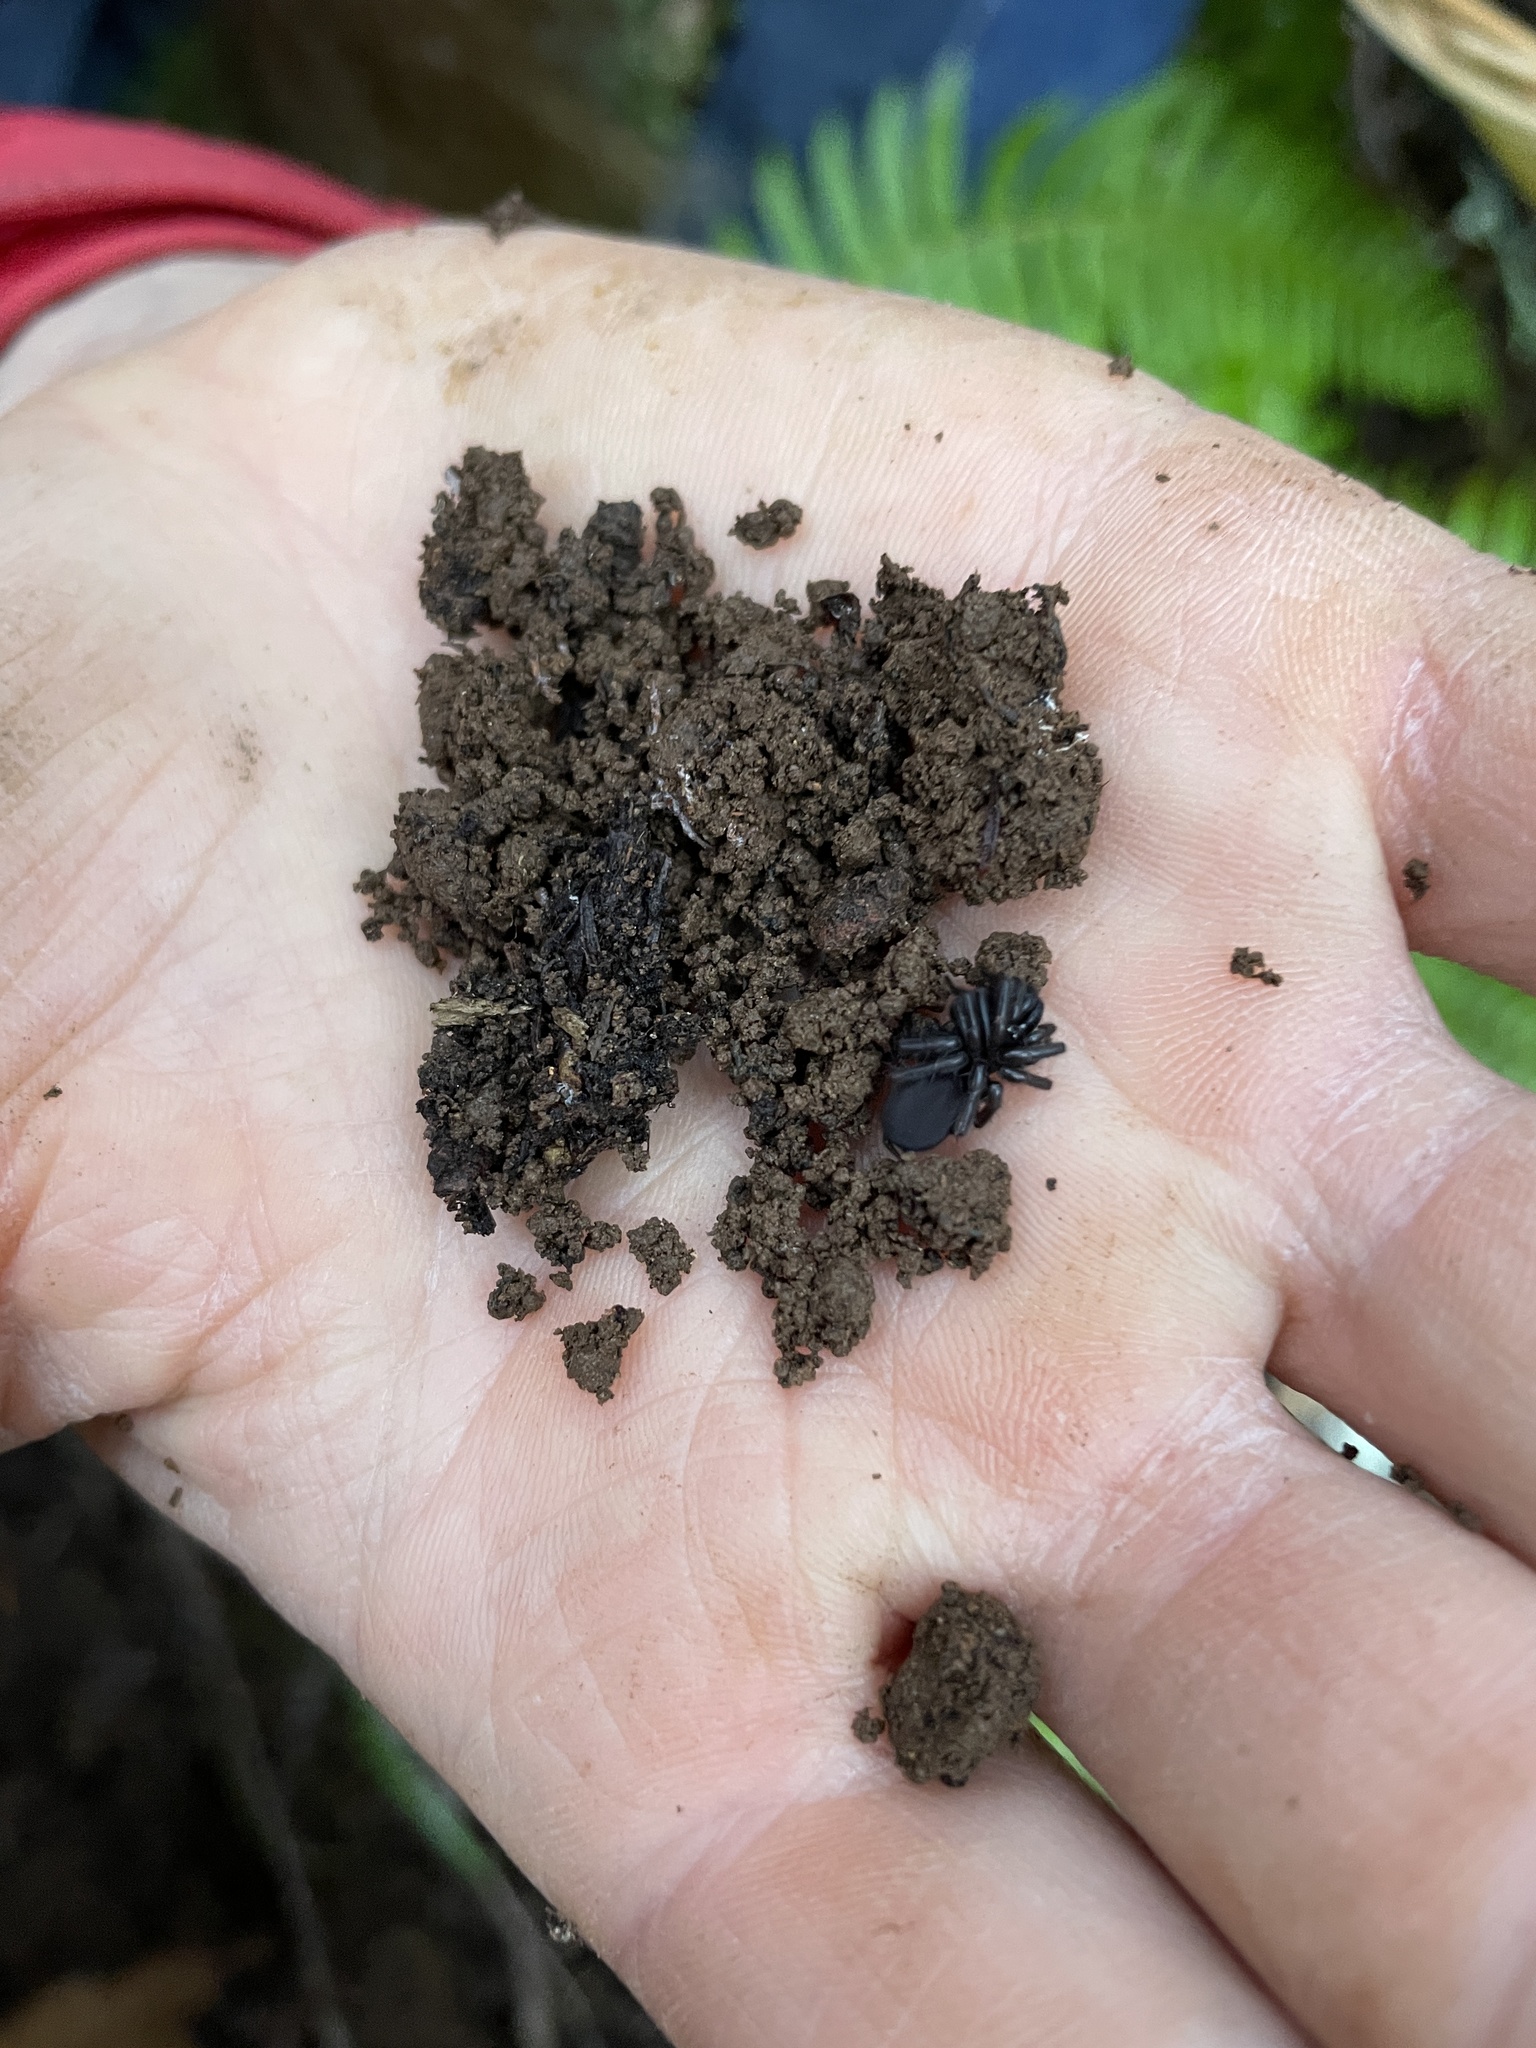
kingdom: Animalia
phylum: Arthropoda
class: Arachnida
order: Araneae
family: Antrodiaetidae
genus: Antrodiaetus
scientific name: Antrodiaetus pacificus
